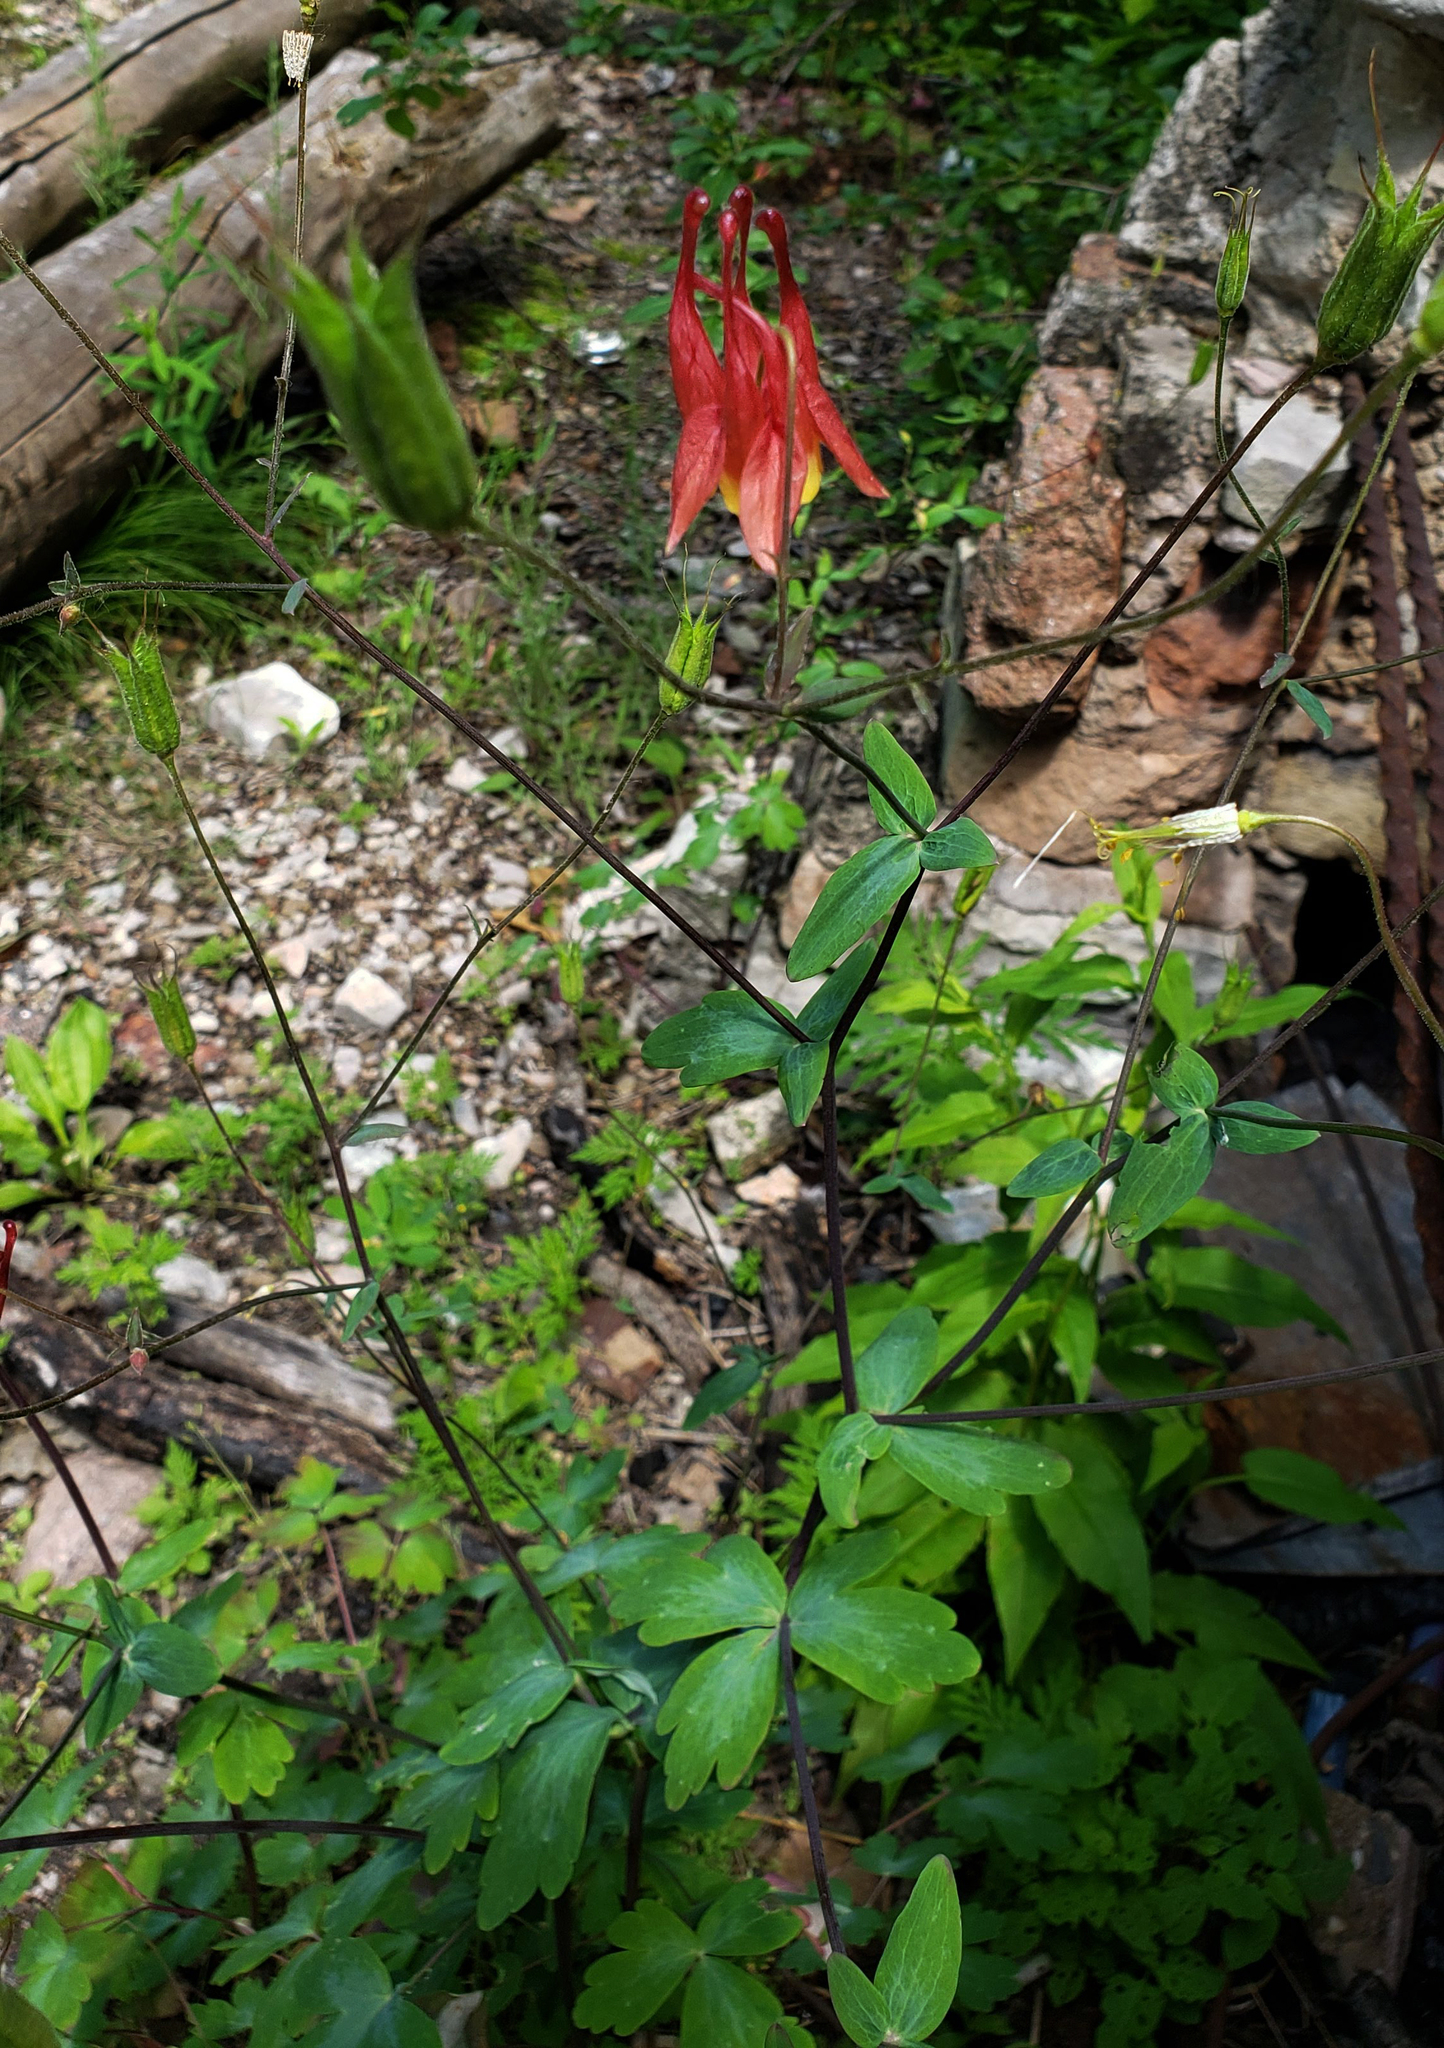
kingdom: Plantae
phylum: Tracheophyta
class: Magnoliopsida
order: Ranunculales
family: Ranunculaceae
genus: Aquilegia
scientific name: Aquilegia canadensis
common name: American columbine
